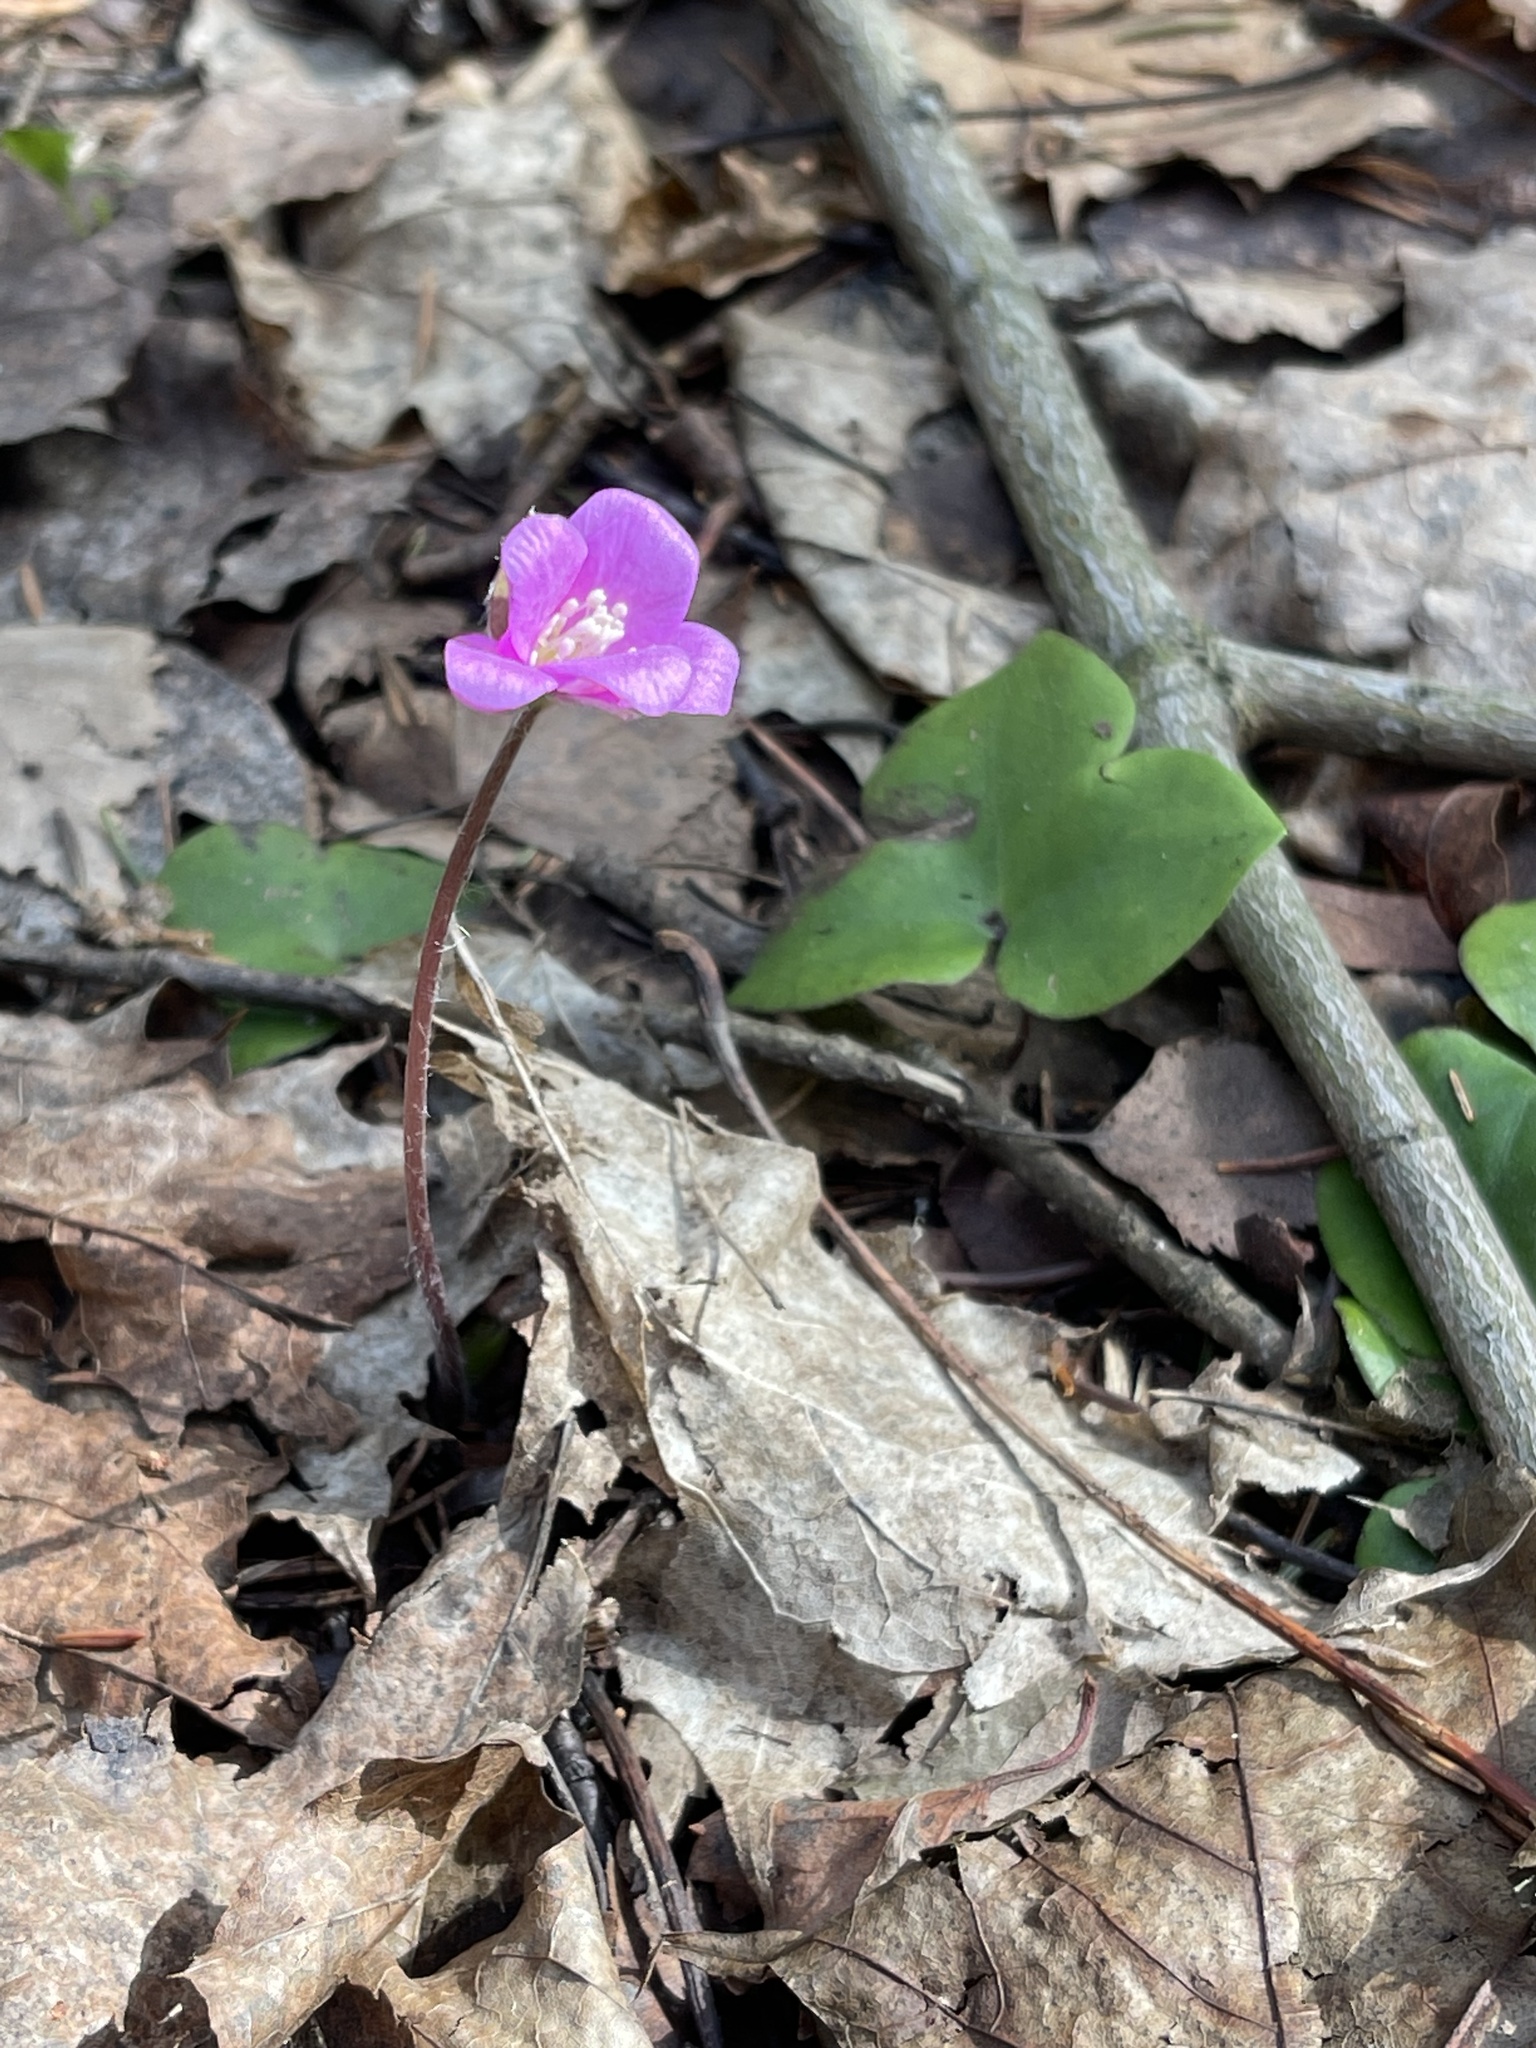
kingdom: Plantae
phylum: Tracheophyta
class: Magnoliopsida
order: Ranunculales
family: Ranunculaceae
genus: Hepatica
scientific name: Hepatica nobilis
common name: Liverleaf
